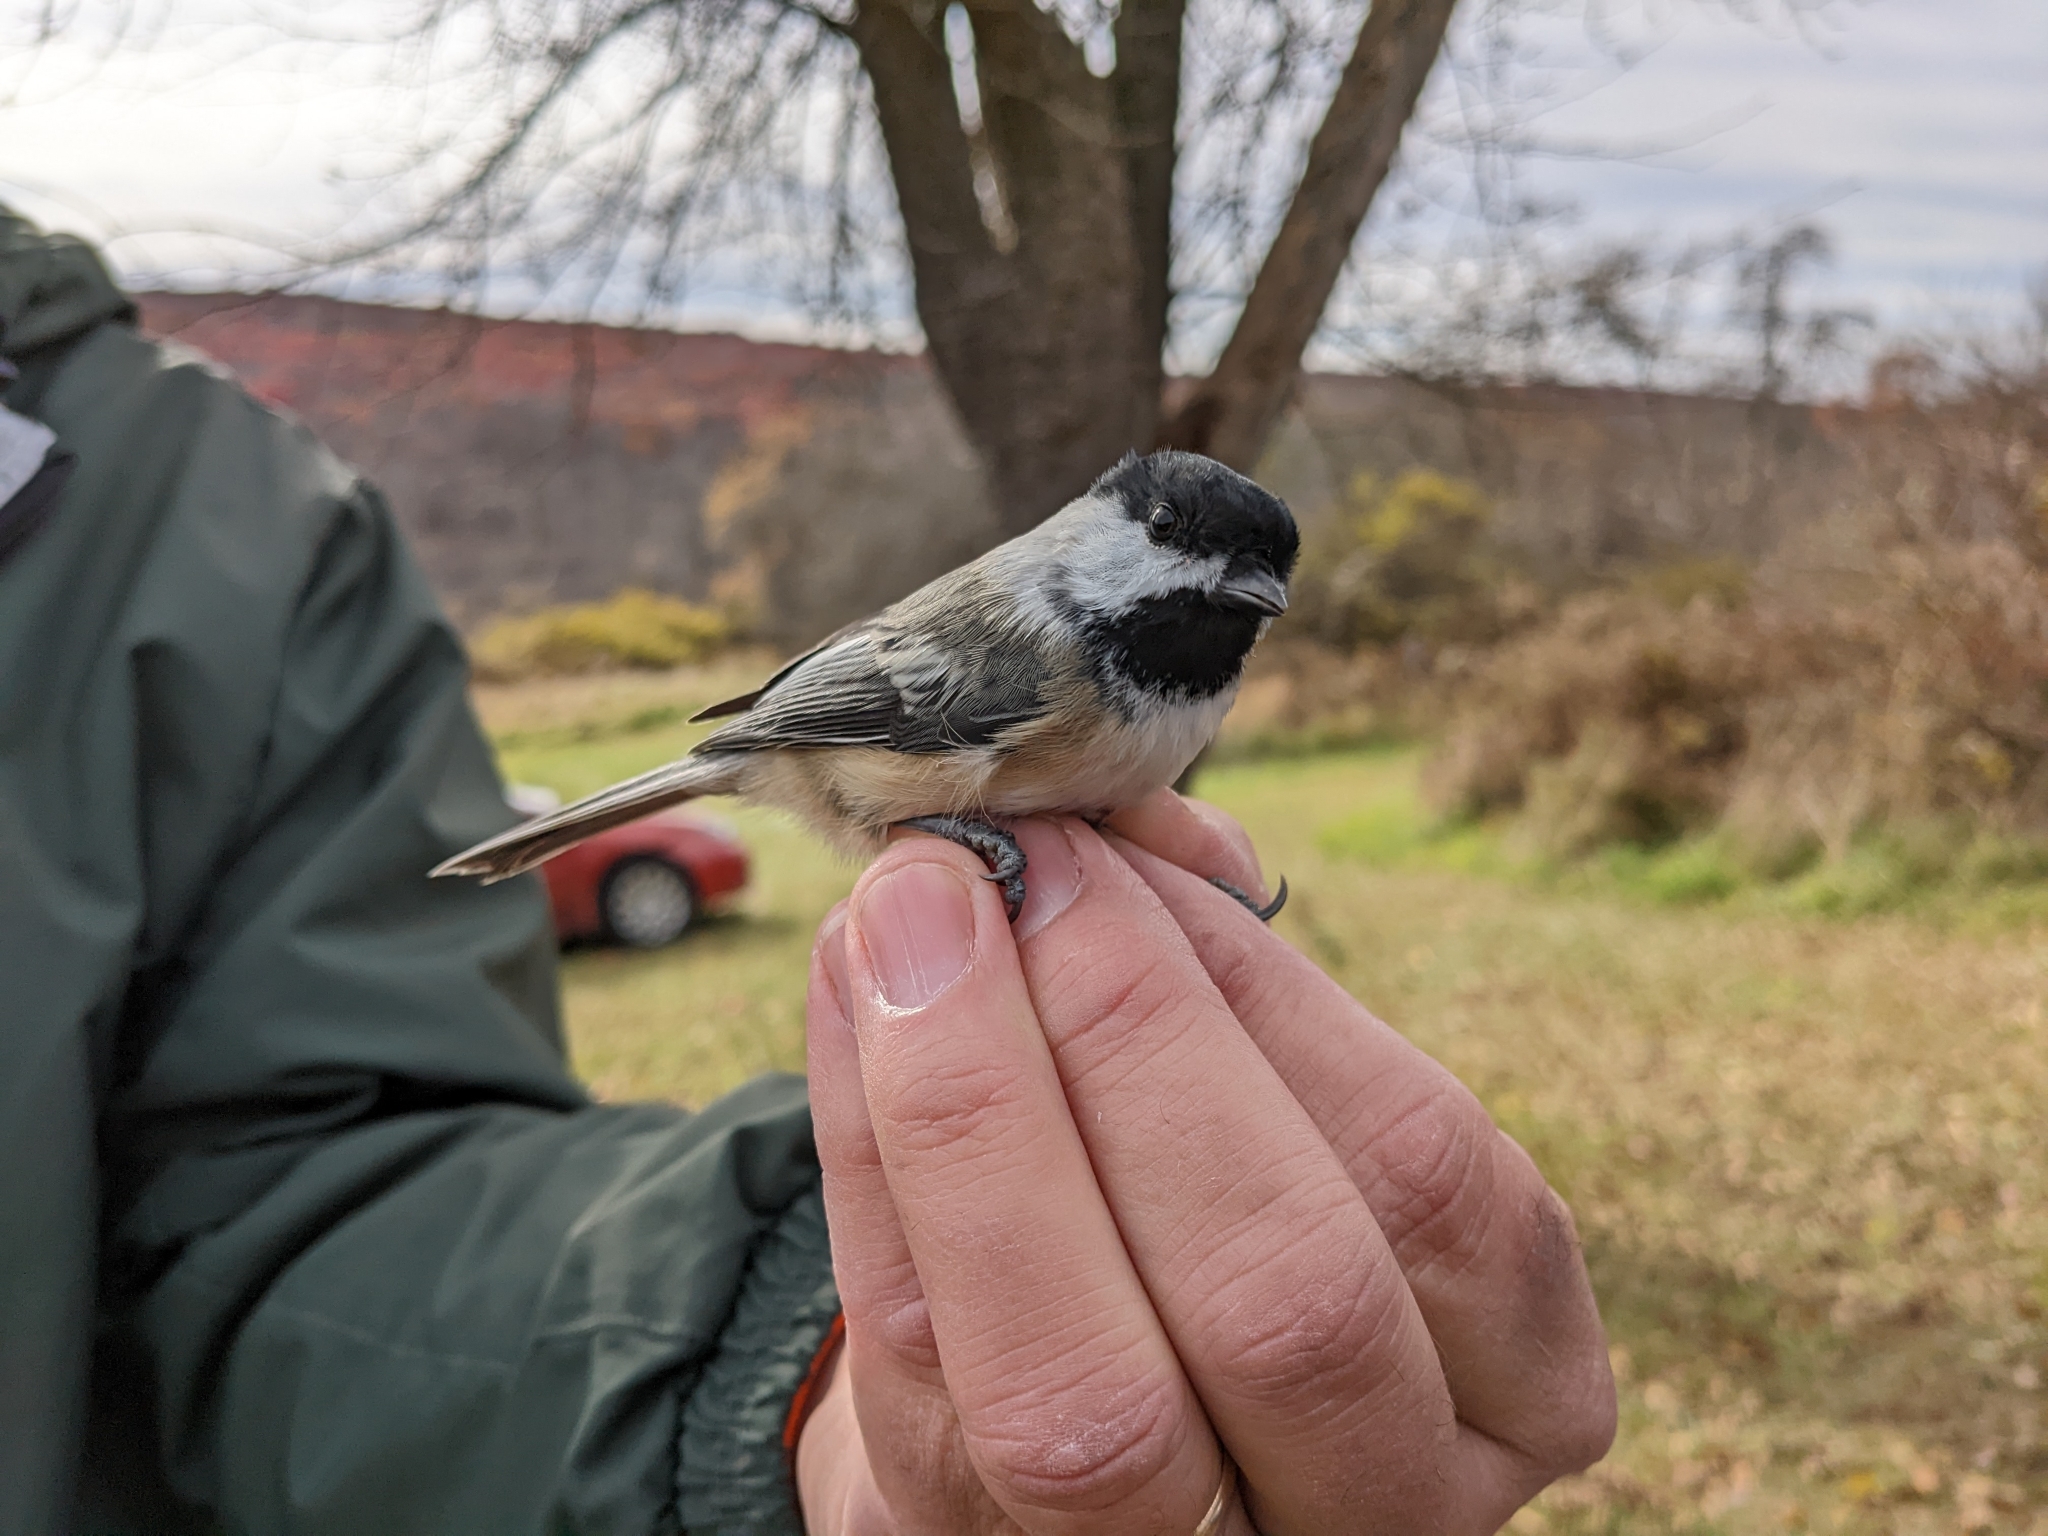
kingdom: Animalia
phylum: Chordata
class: Aves
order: Passeriformes
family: Paridae
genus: Poecile
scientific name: Poecile atricapillus
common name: Black-capped chickadee
